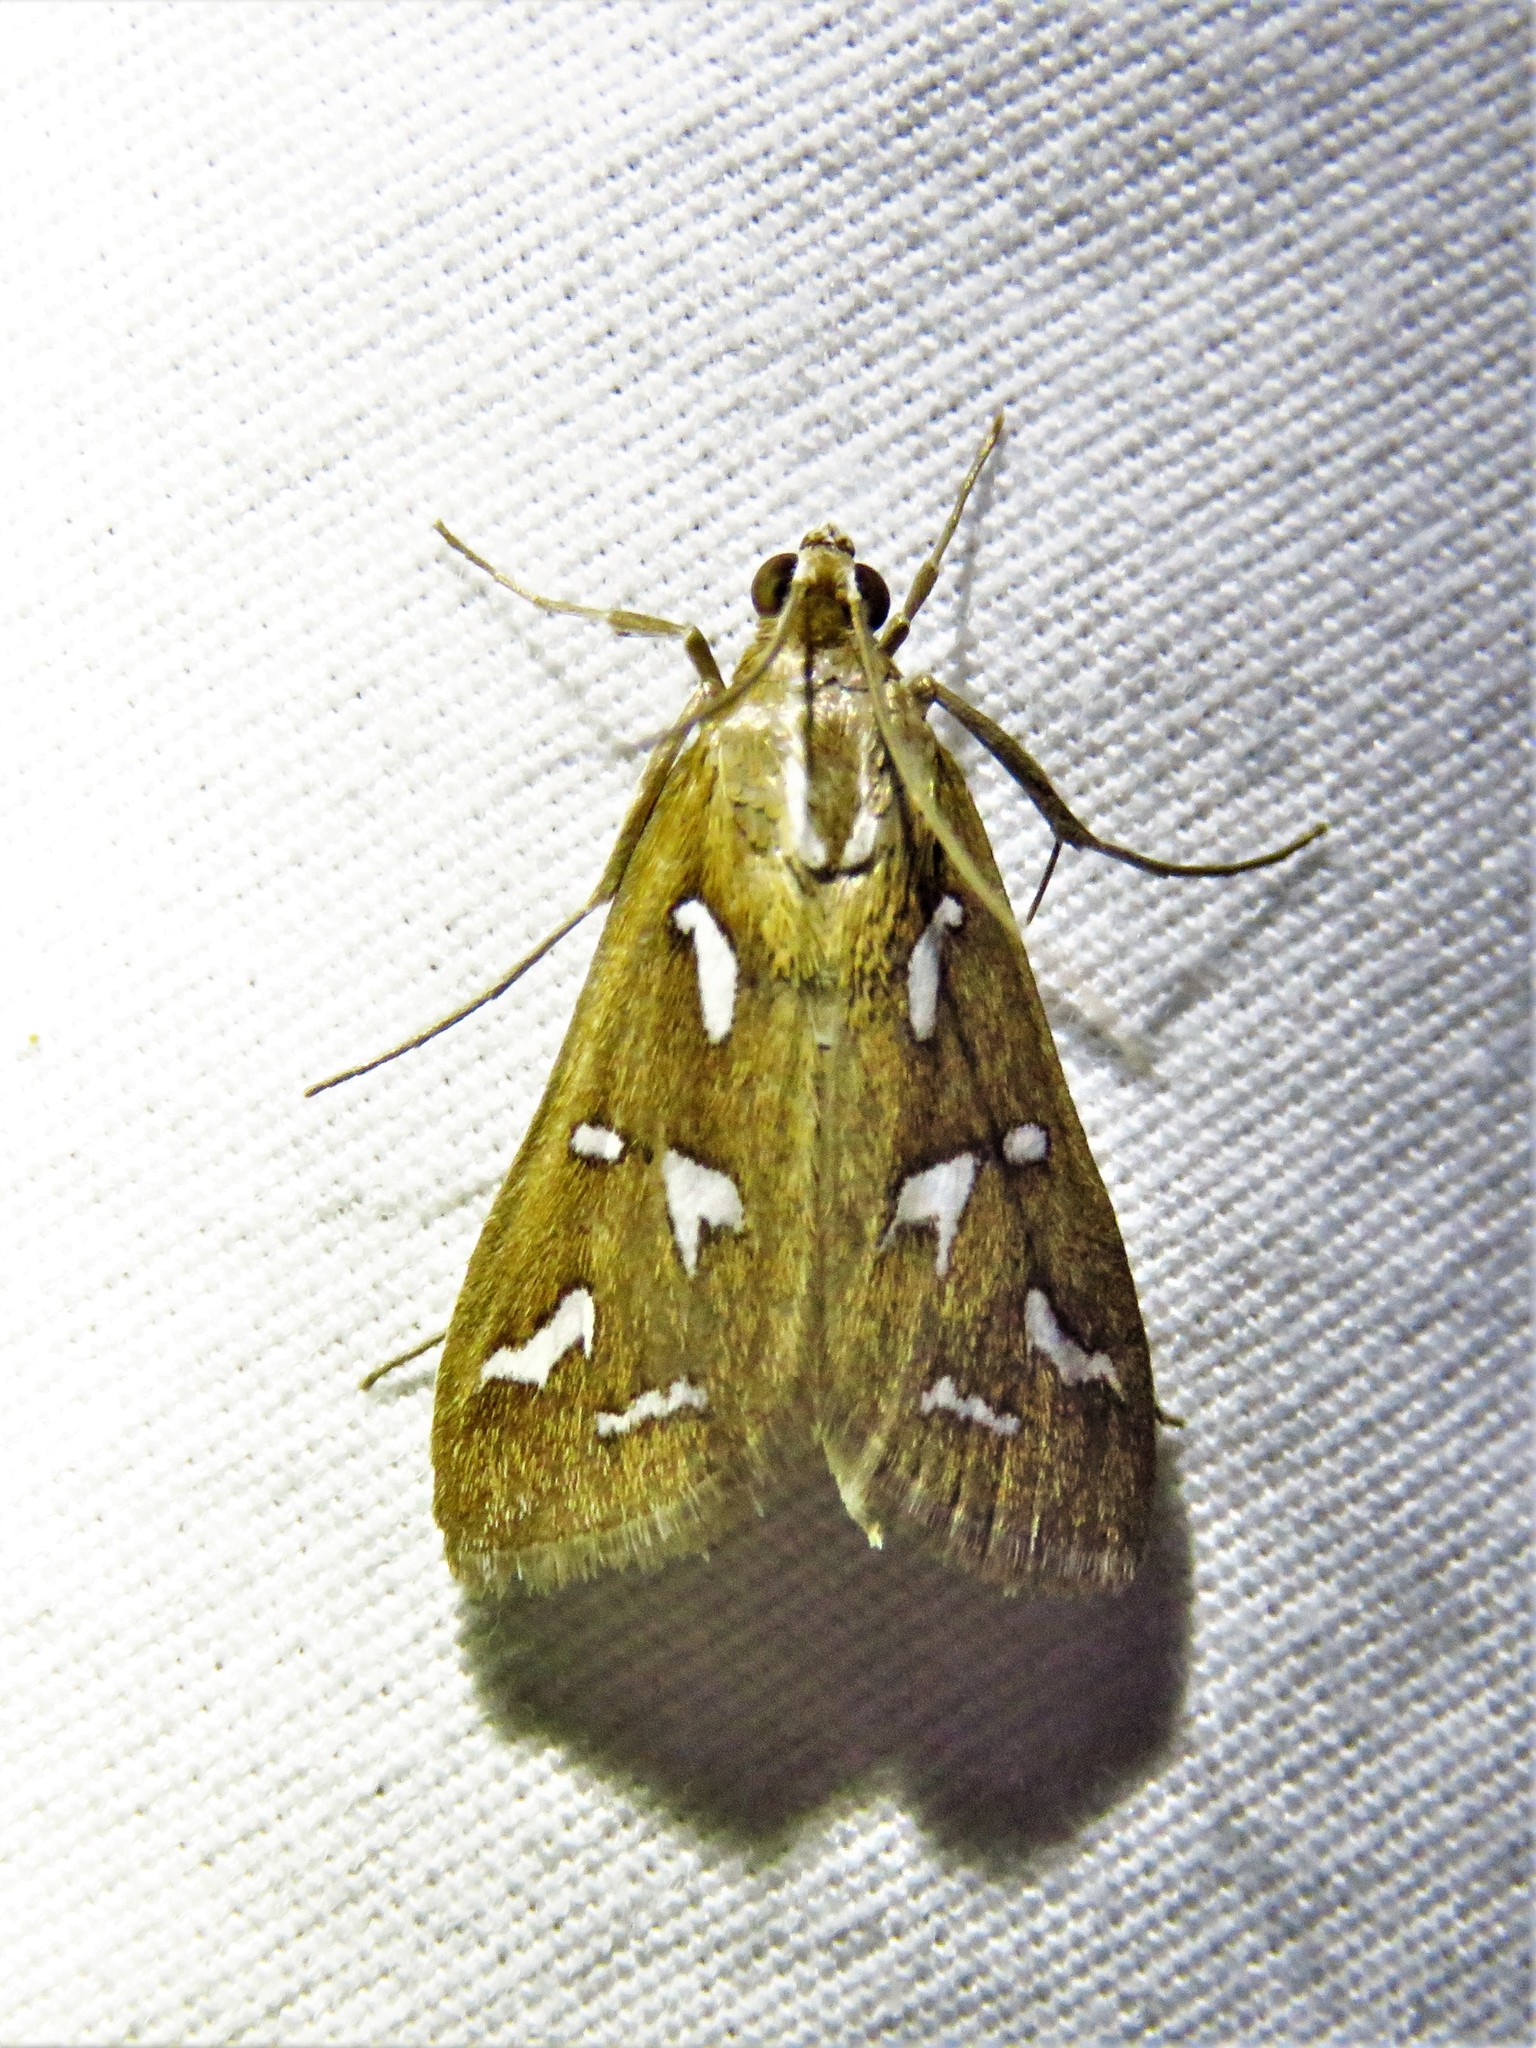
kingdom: Animalia
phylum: Arthropoda
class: Insecta
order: Lepidoptera
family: Crambidae
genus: Diastictis
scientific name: Diastictis fracturalis
